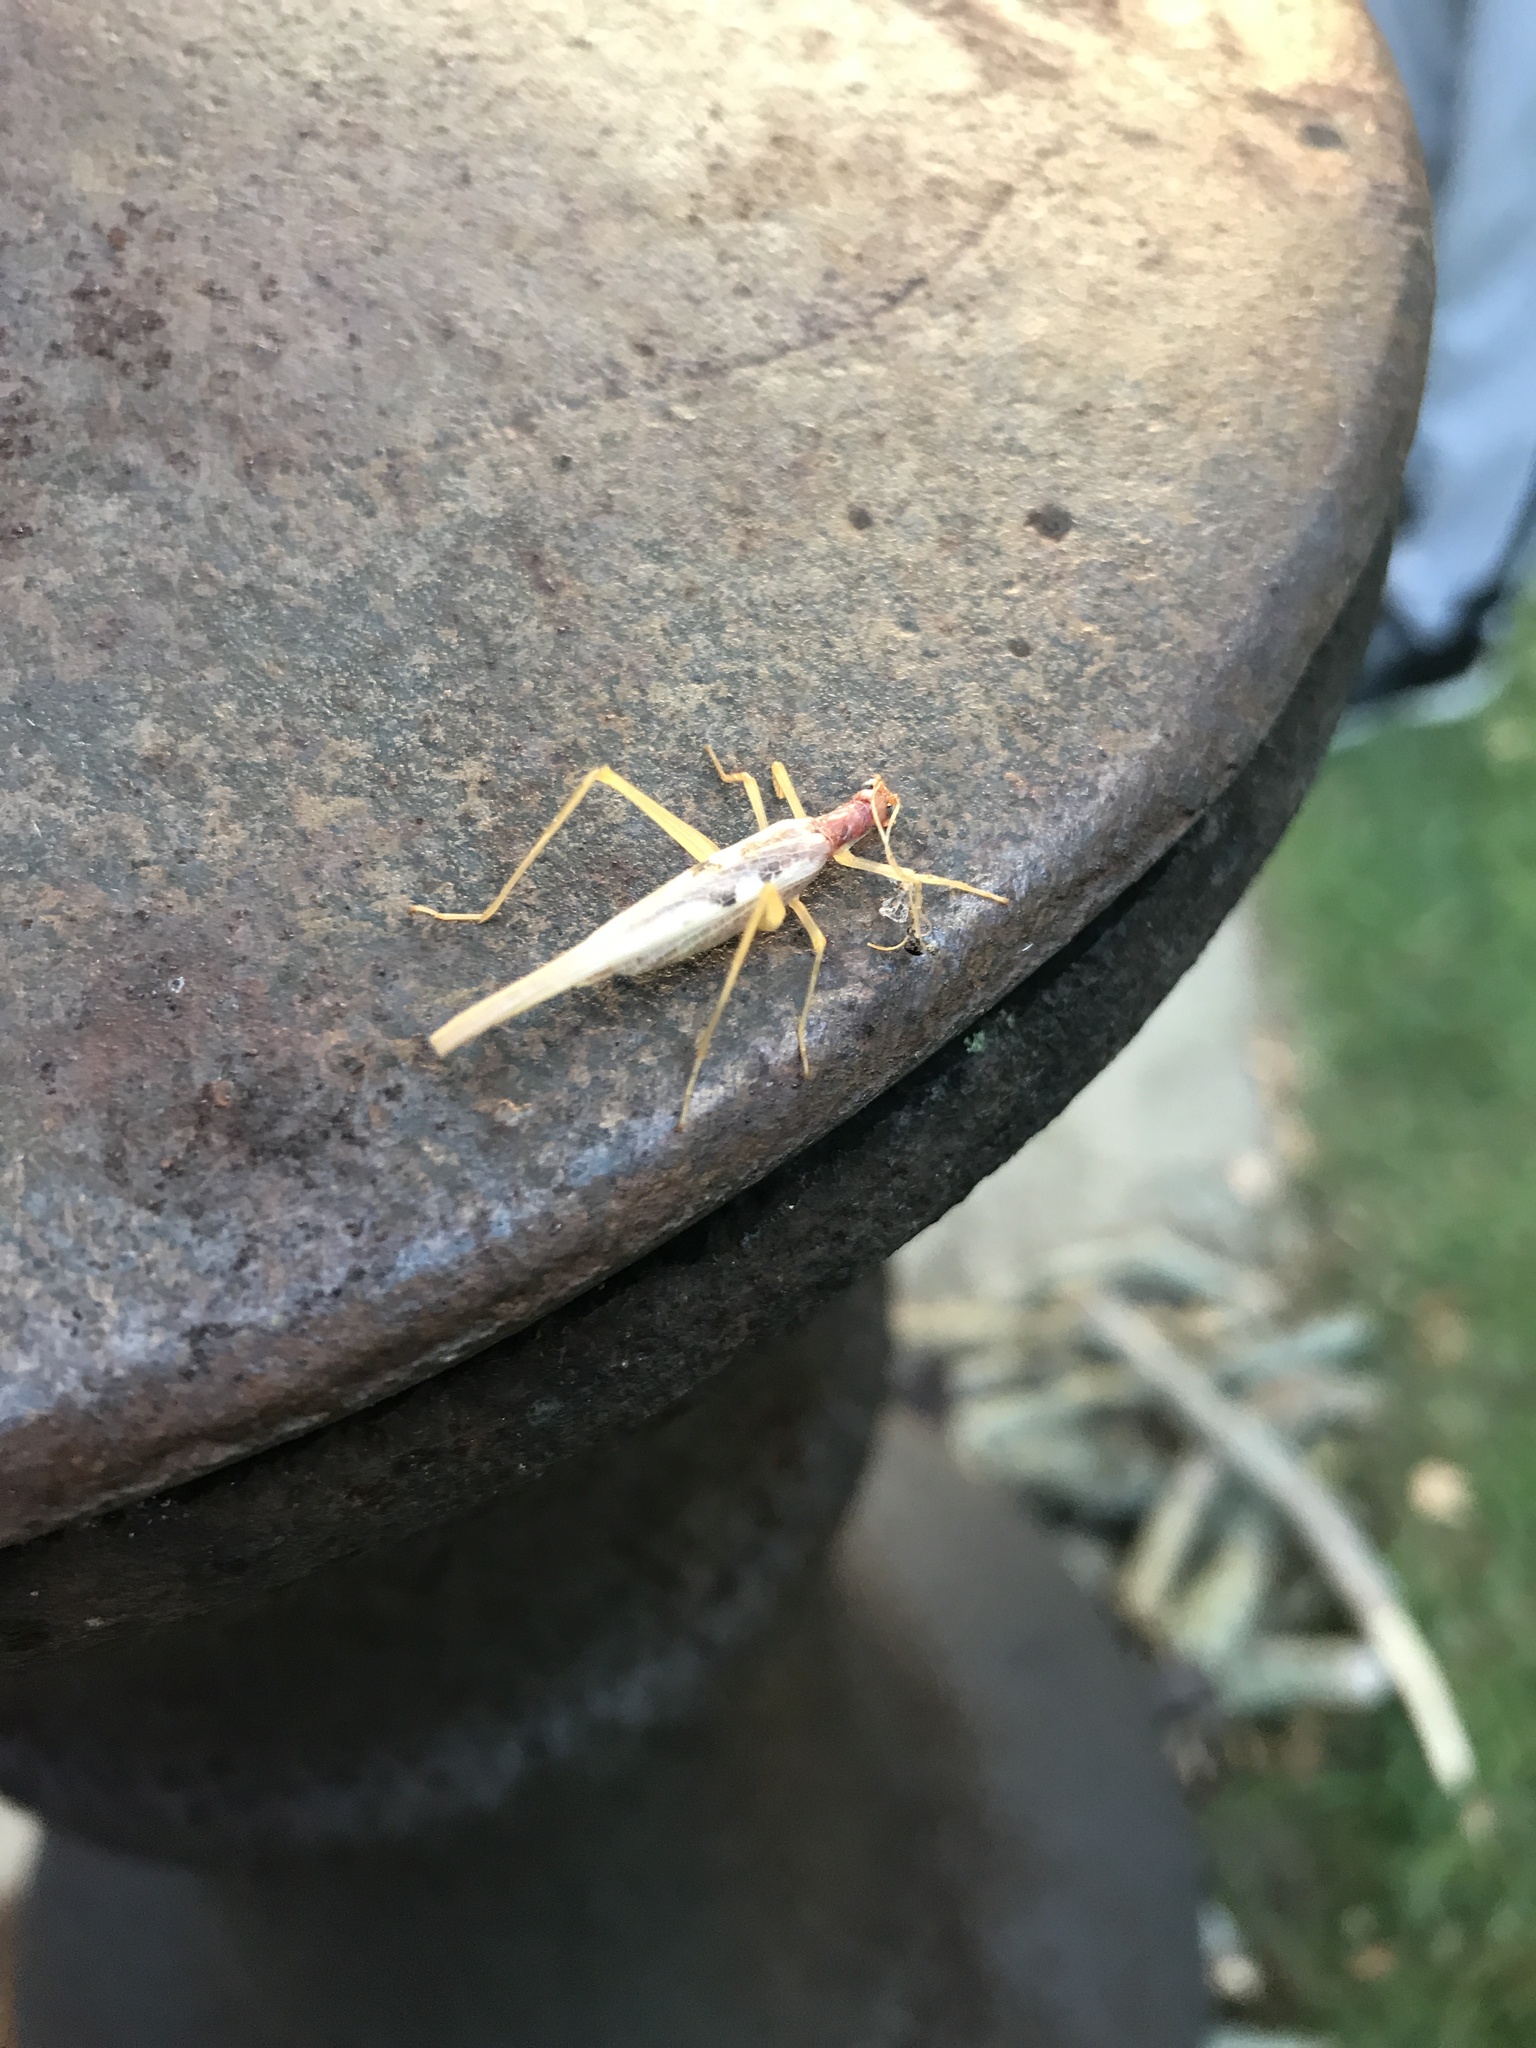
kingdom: Animalia
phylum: Arthropoda
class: Insecta
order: Orthoptera
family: Gryllidae
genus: Neoxabea
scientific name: Neoxabea bipunctata
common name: Two-spotted tree cricket
